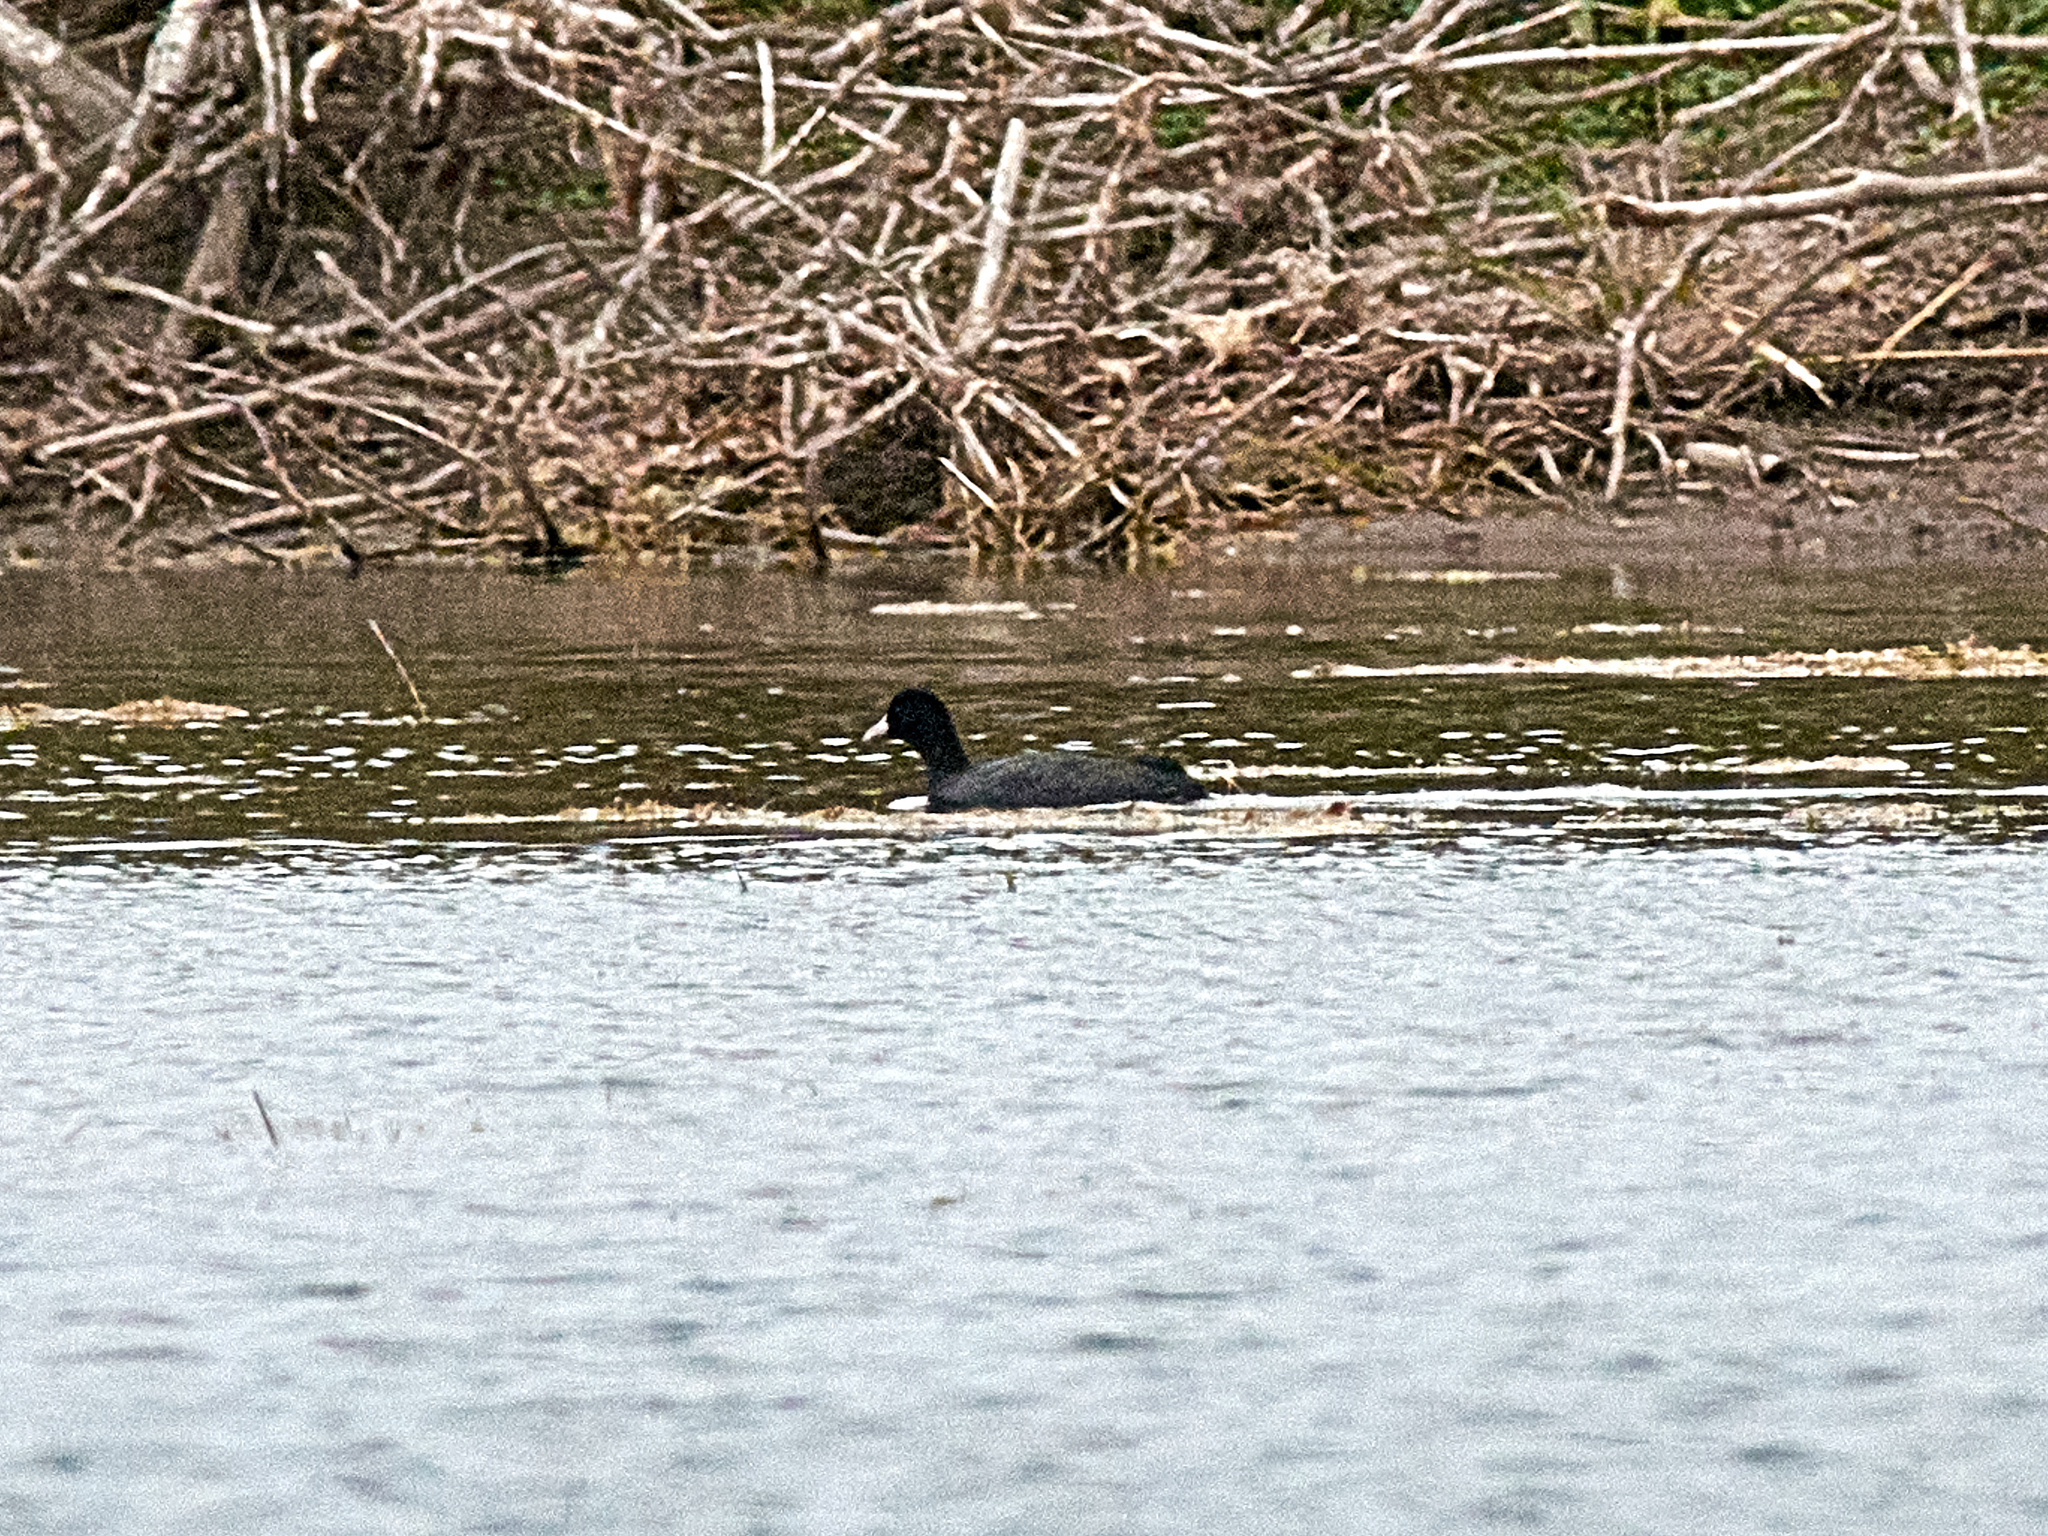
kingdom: Animalia
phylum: Chordata
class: Aves
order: Gruiformes
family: Rallidae
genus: Fulica
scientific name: Fulica atra
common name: Eurasian coot
